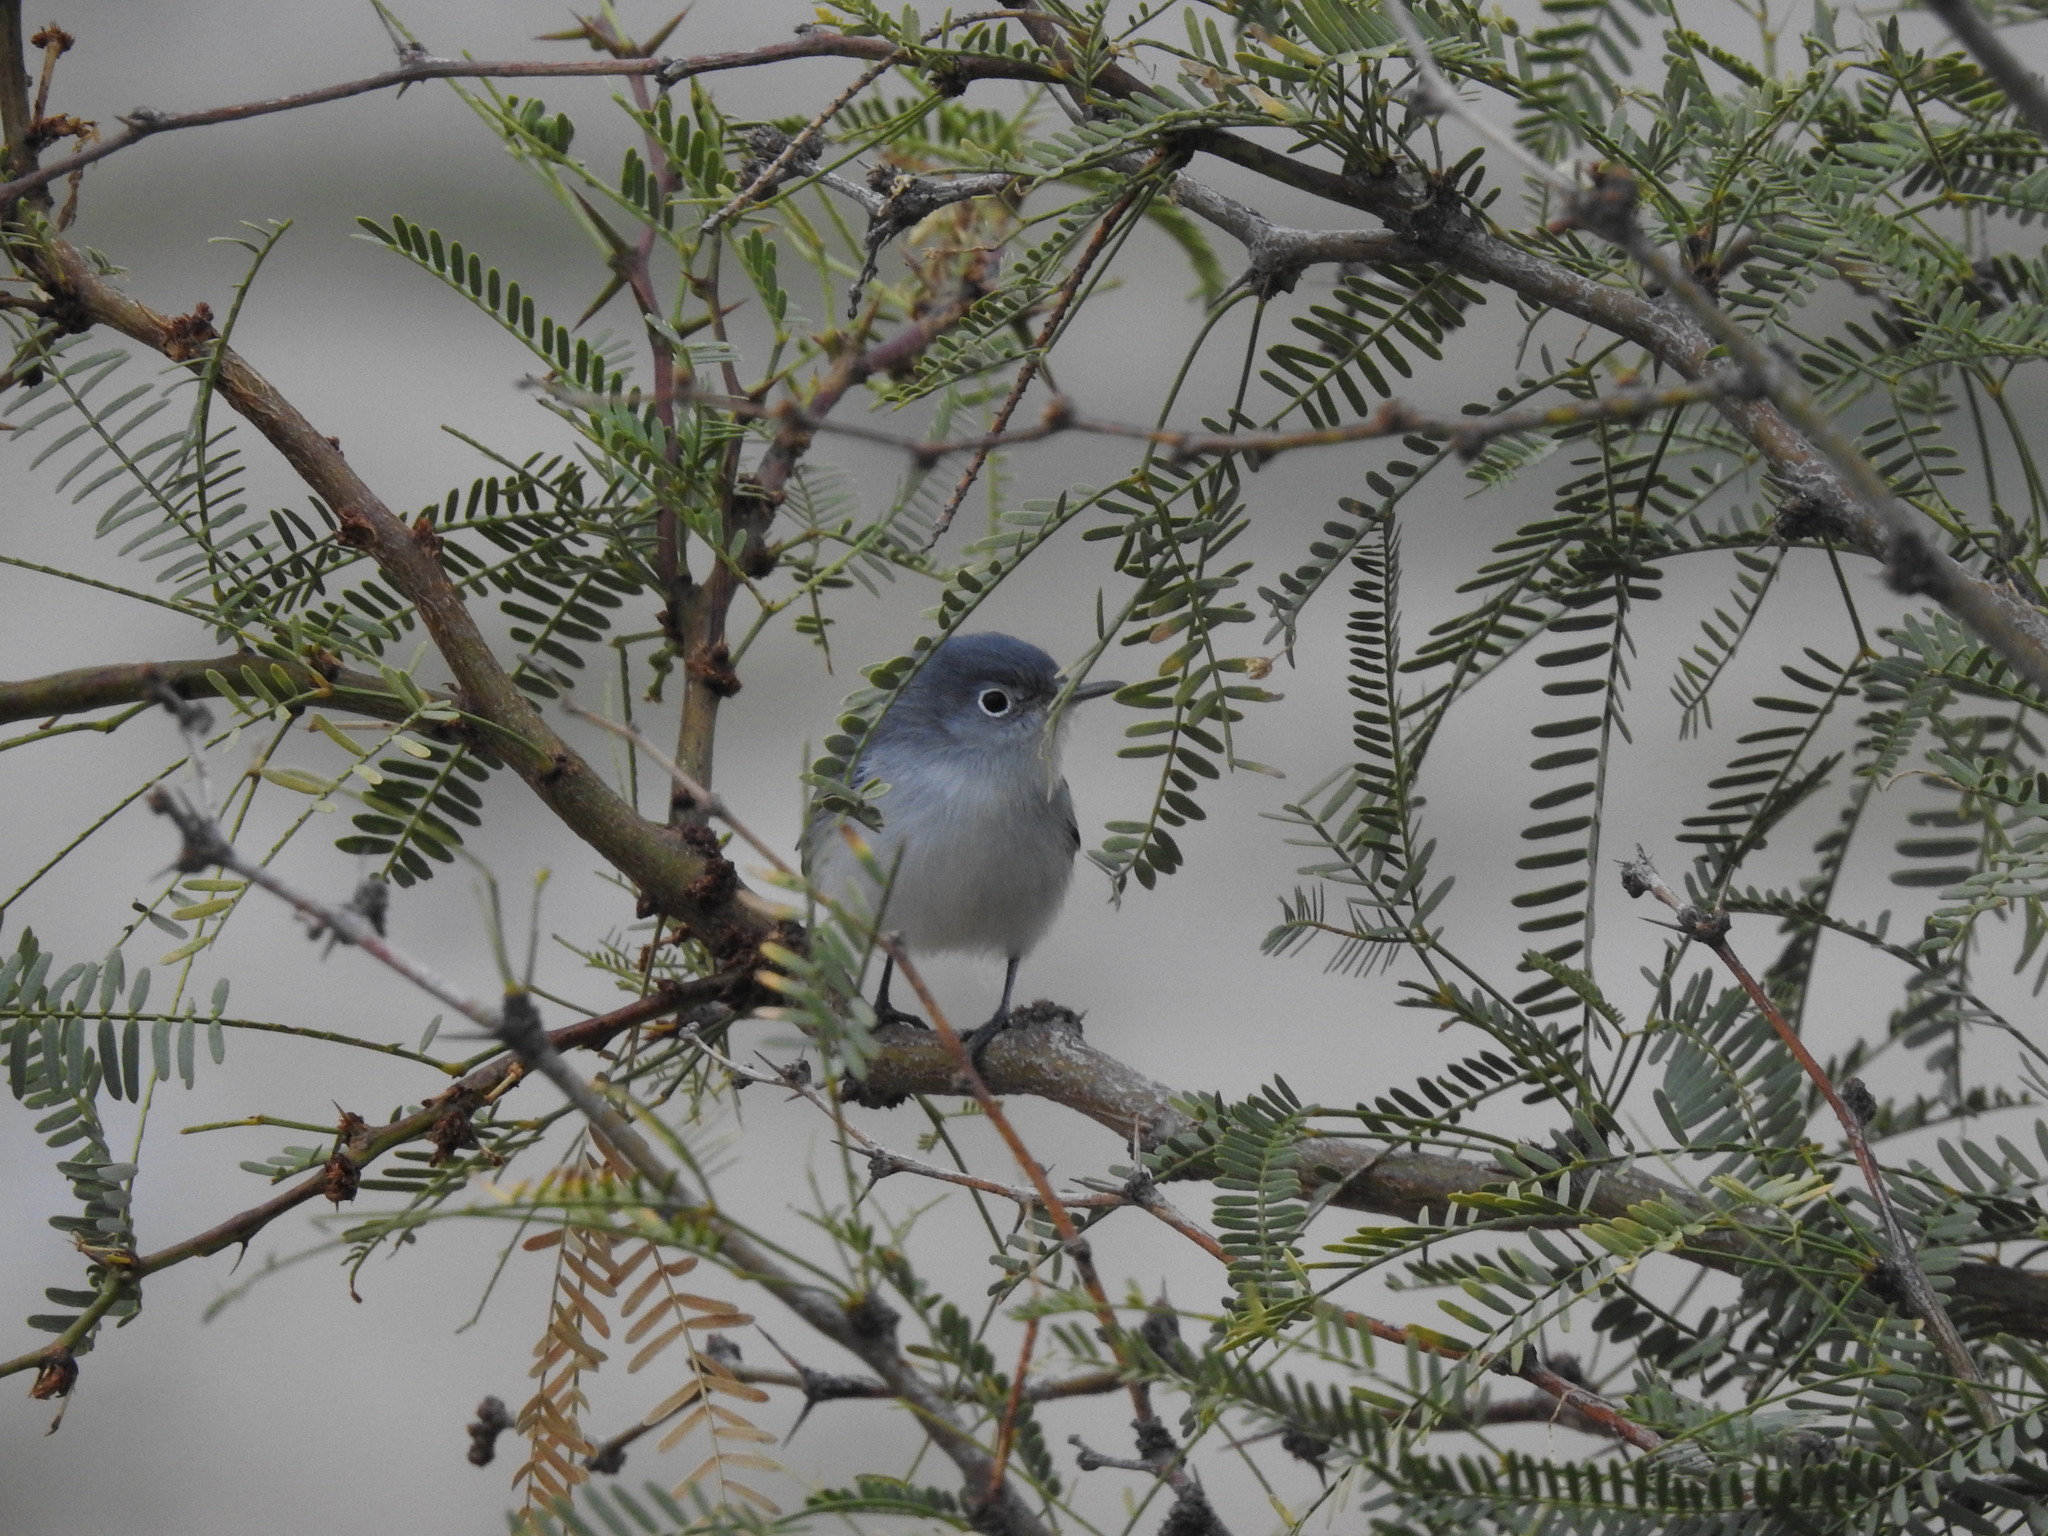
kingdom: Animalia
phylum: Chordata
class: Aves
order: Passeriformes
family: Polioptilidae
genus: Polioptila
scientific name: Polioptila caerulea
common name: Blue-gray gnatcatcher
